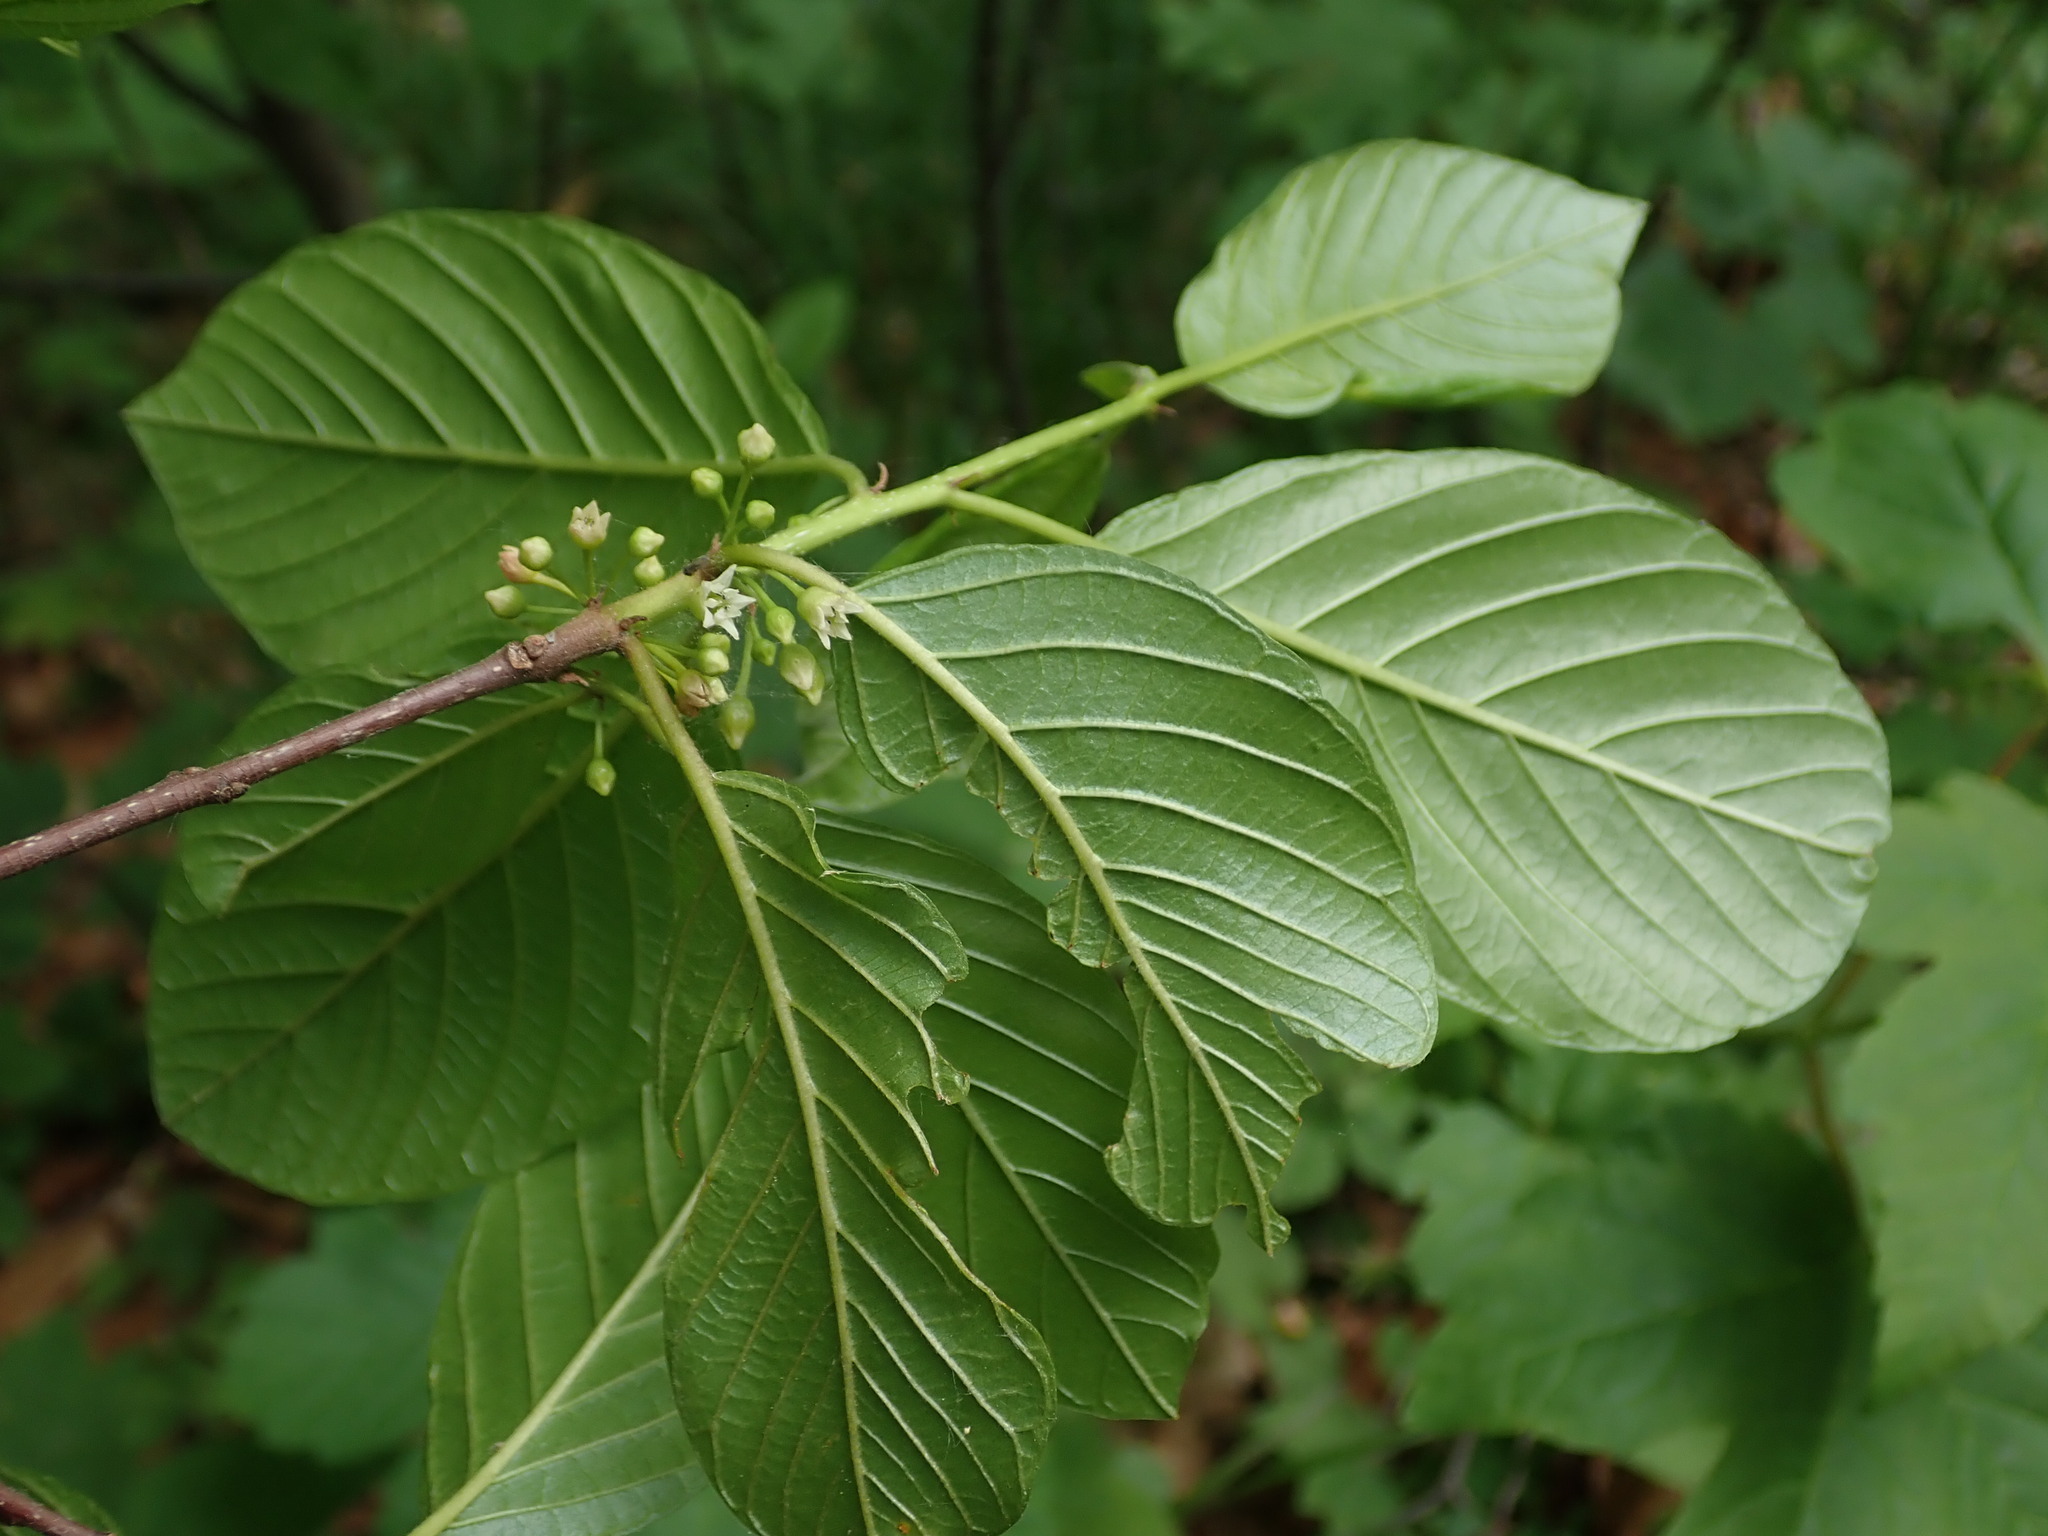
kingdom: Plantae
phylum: Tracheophyta
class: Magnoliopsida
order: Rosales
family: Rhamnaceae
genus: Frangula
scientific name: Frangula alnus
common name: Alder buckthorn
